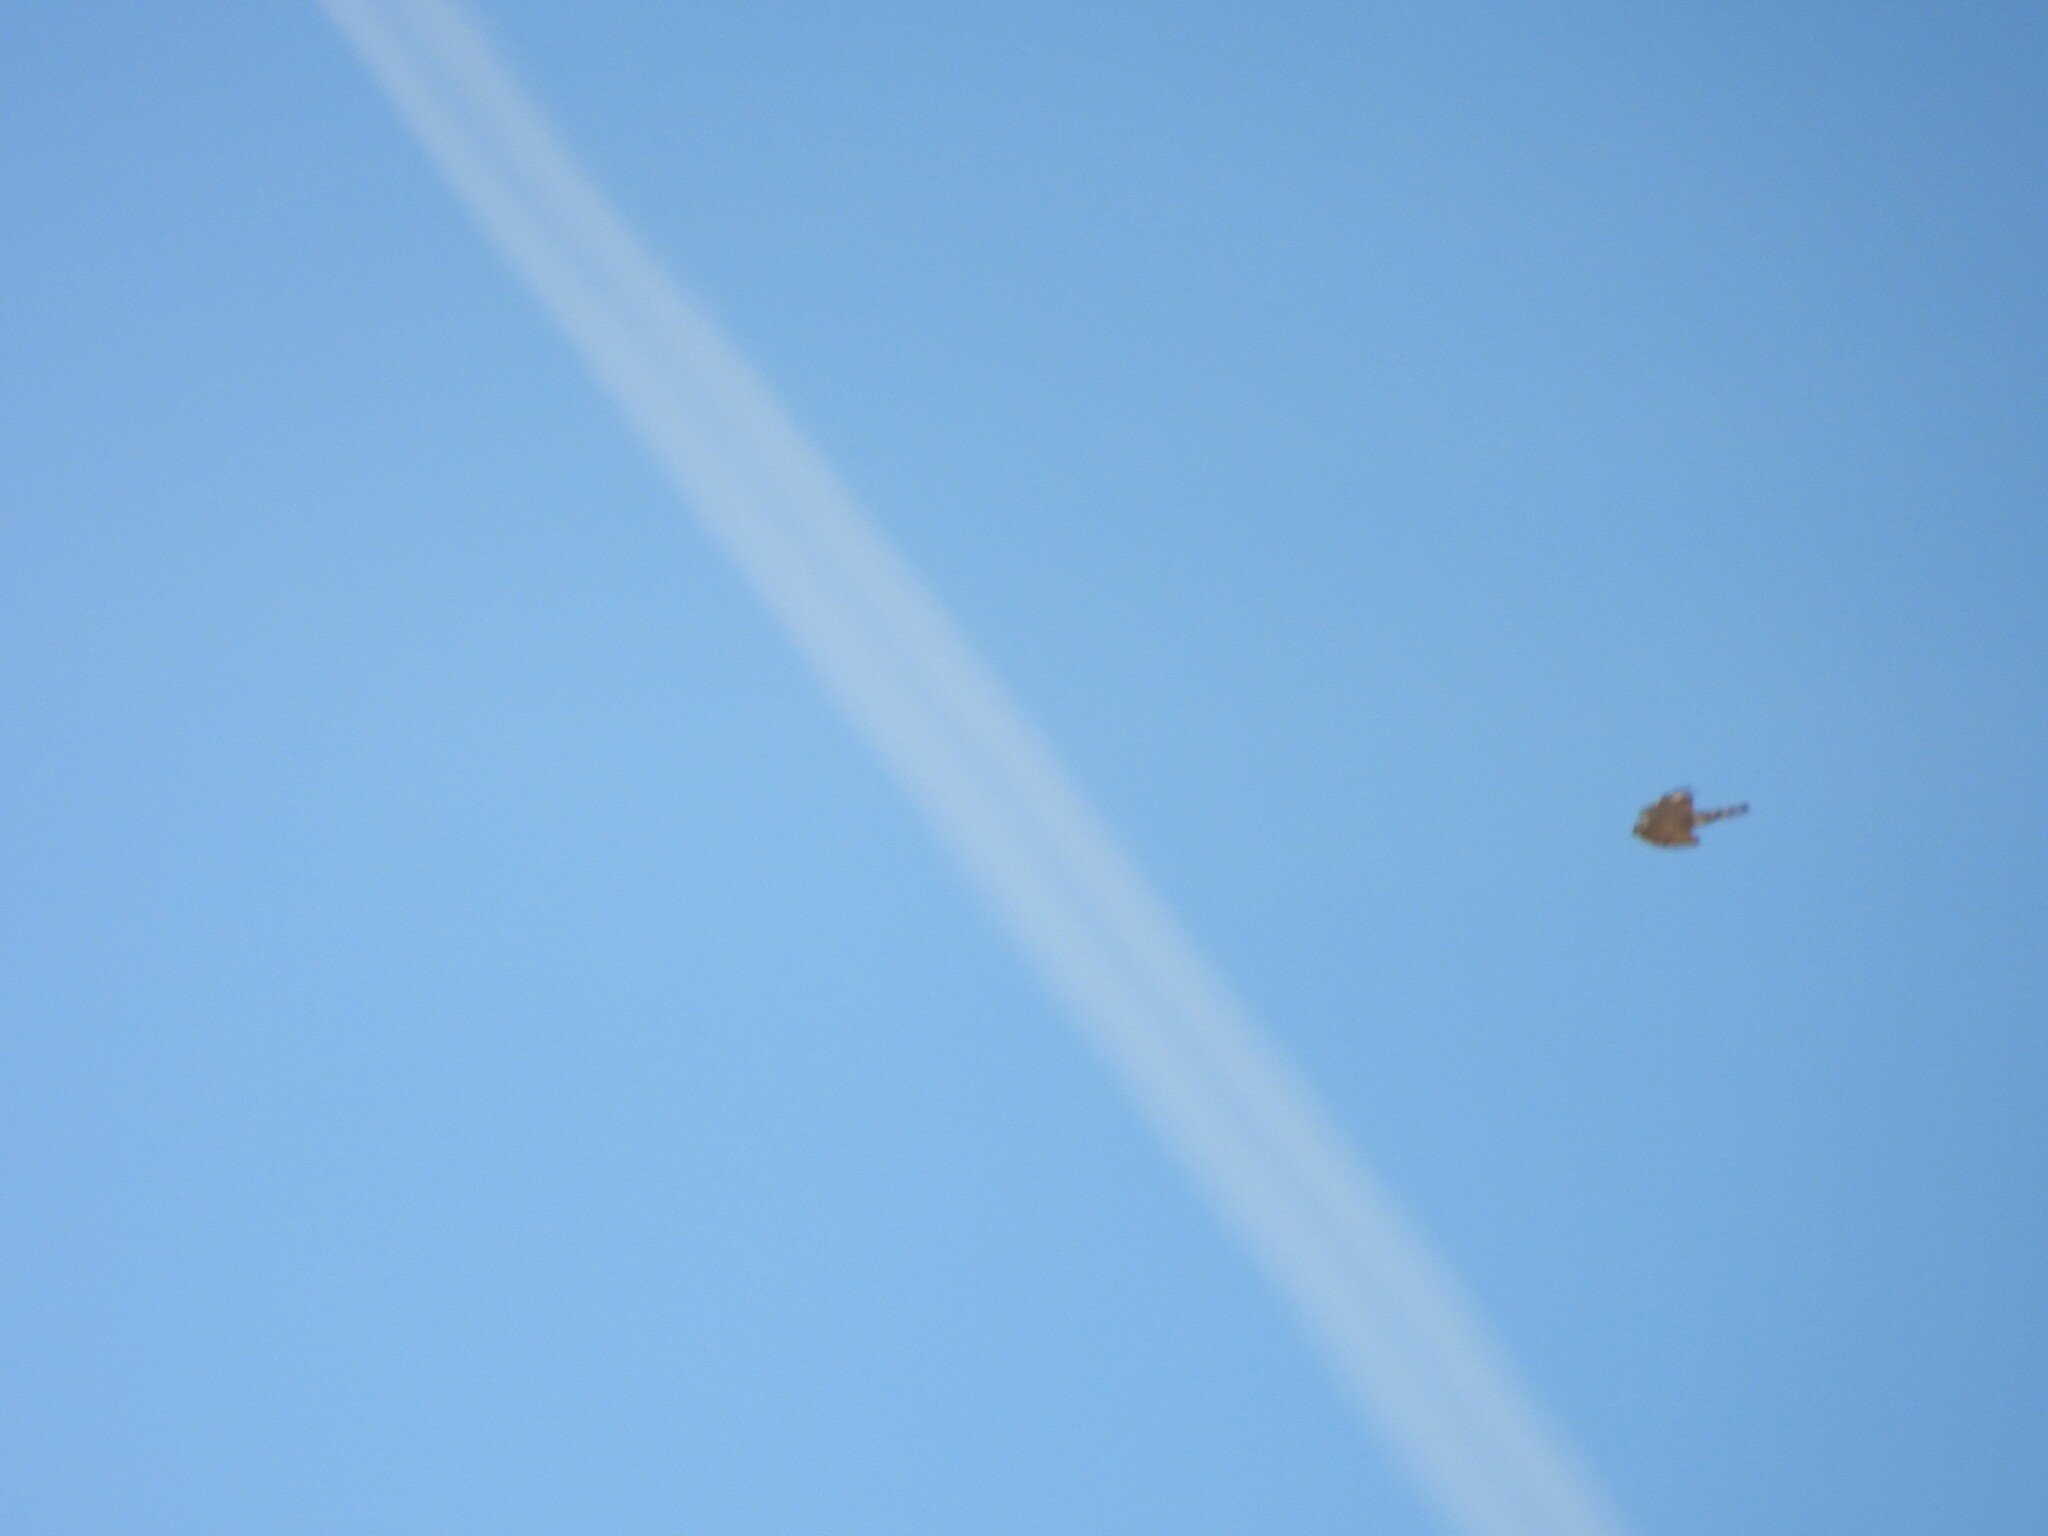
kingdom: Animalia
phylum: Chordata
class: Aves
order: Accipitriformes
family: Accipitridae
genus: Accipiter
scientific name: Accipiter striatus
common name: Sharp-shinned hawk
